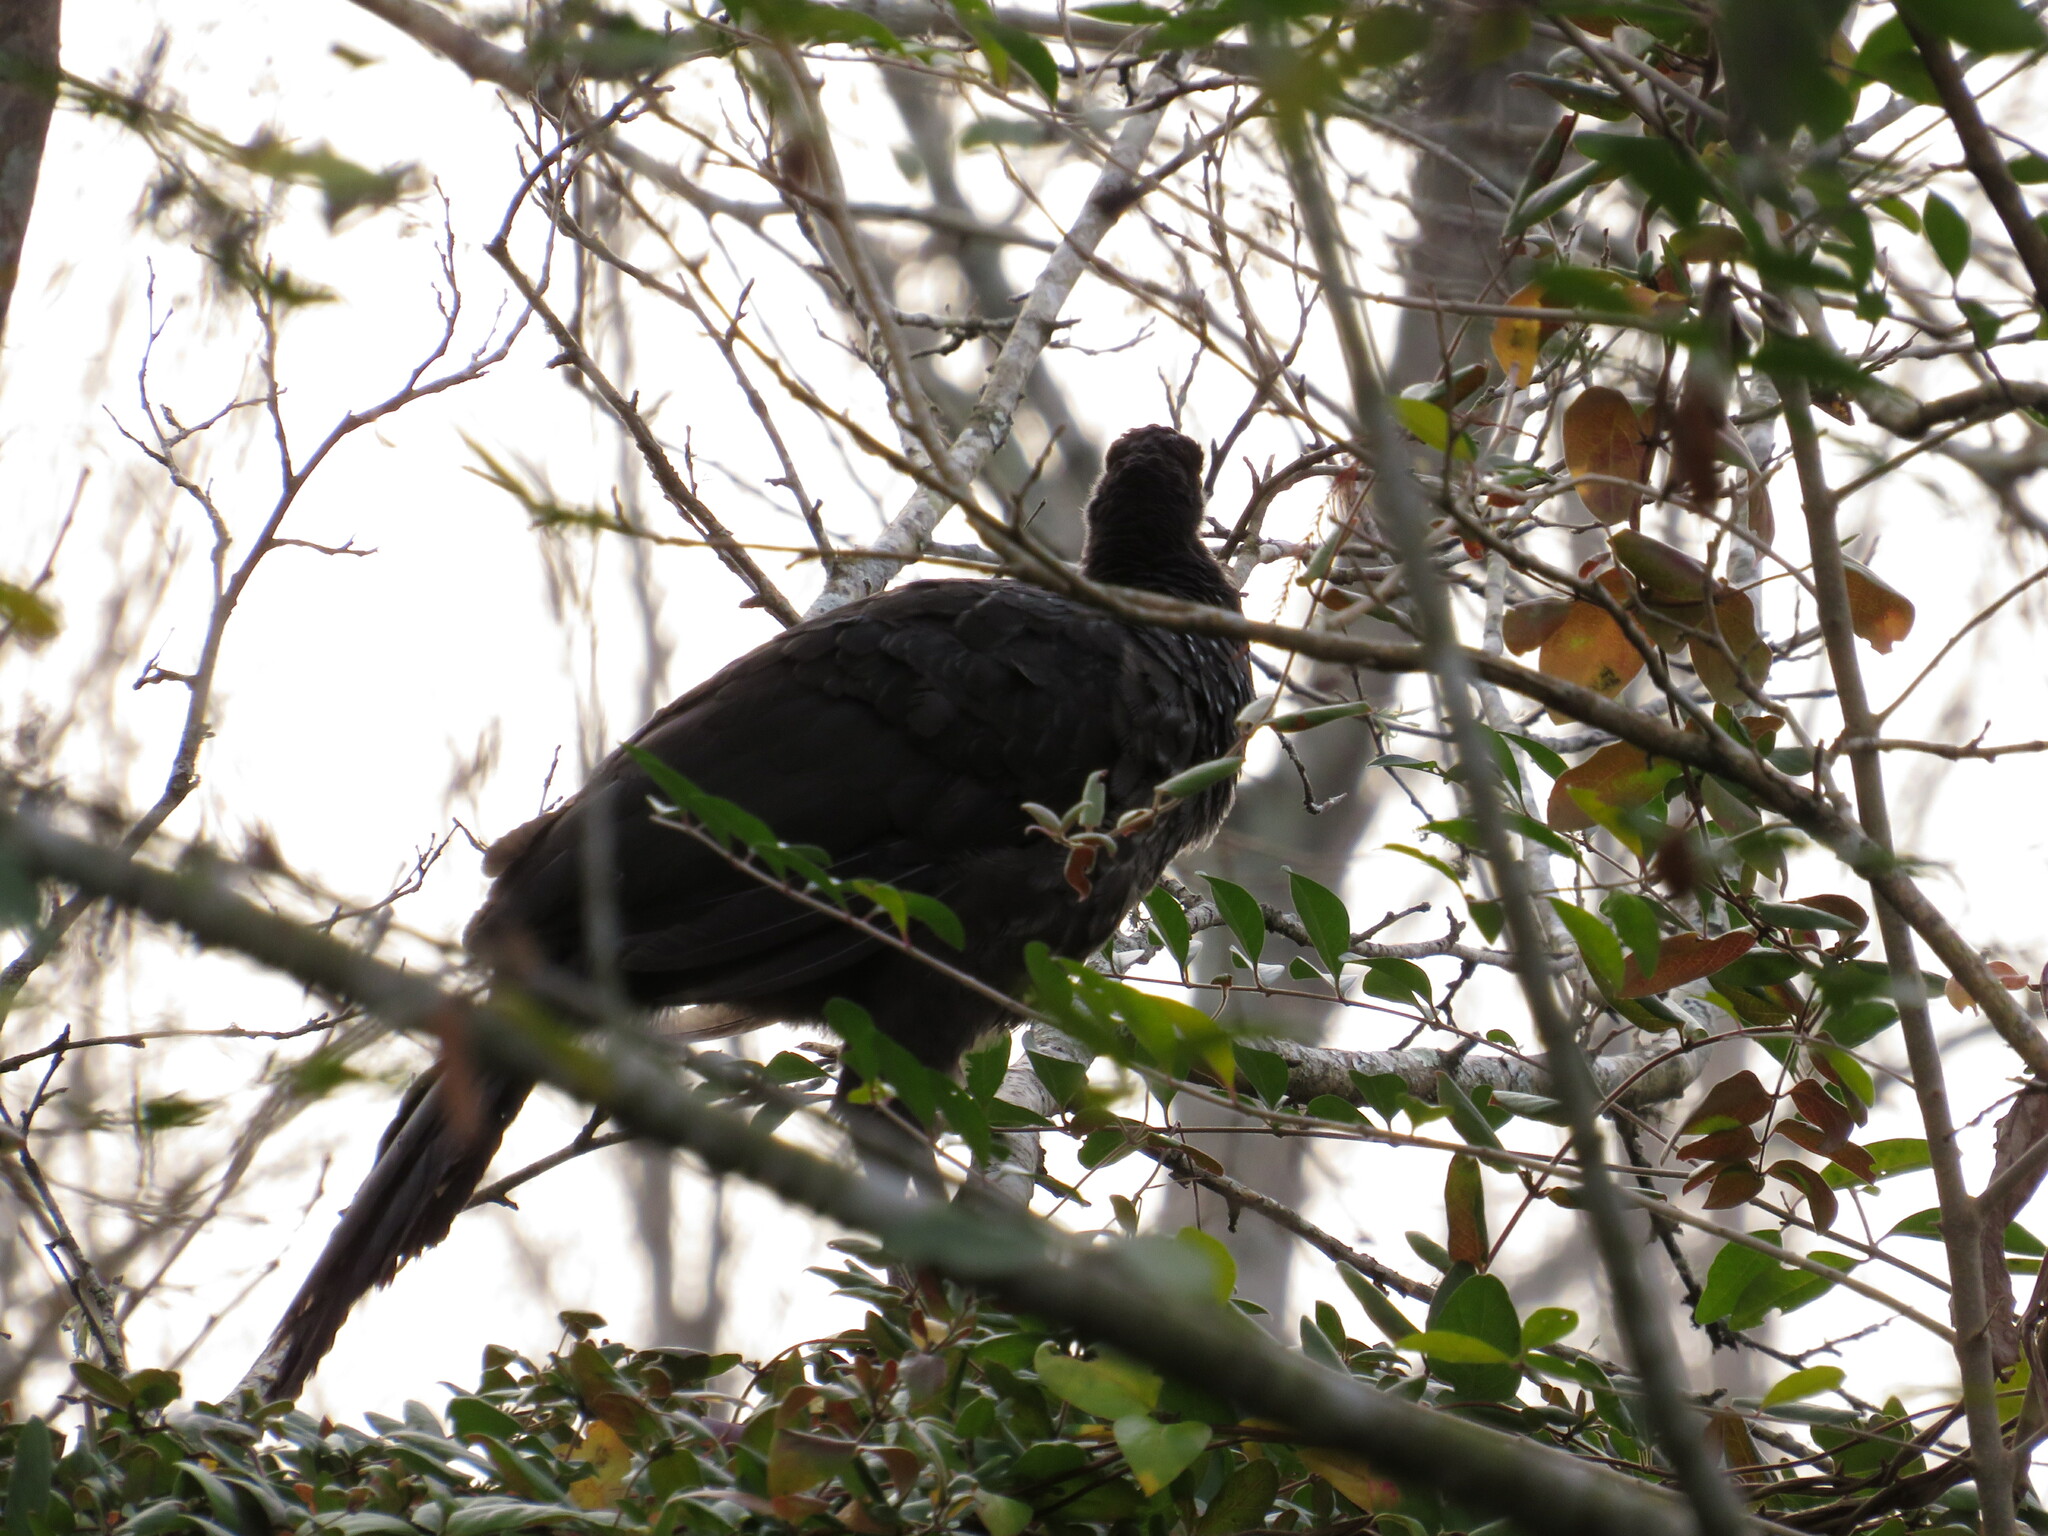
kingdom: Animalia
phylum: Chordata
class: Aves
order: Galliformes
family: Cracidae
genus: Penelope
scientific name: Penelope obscura
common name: Dusky-legged guan
